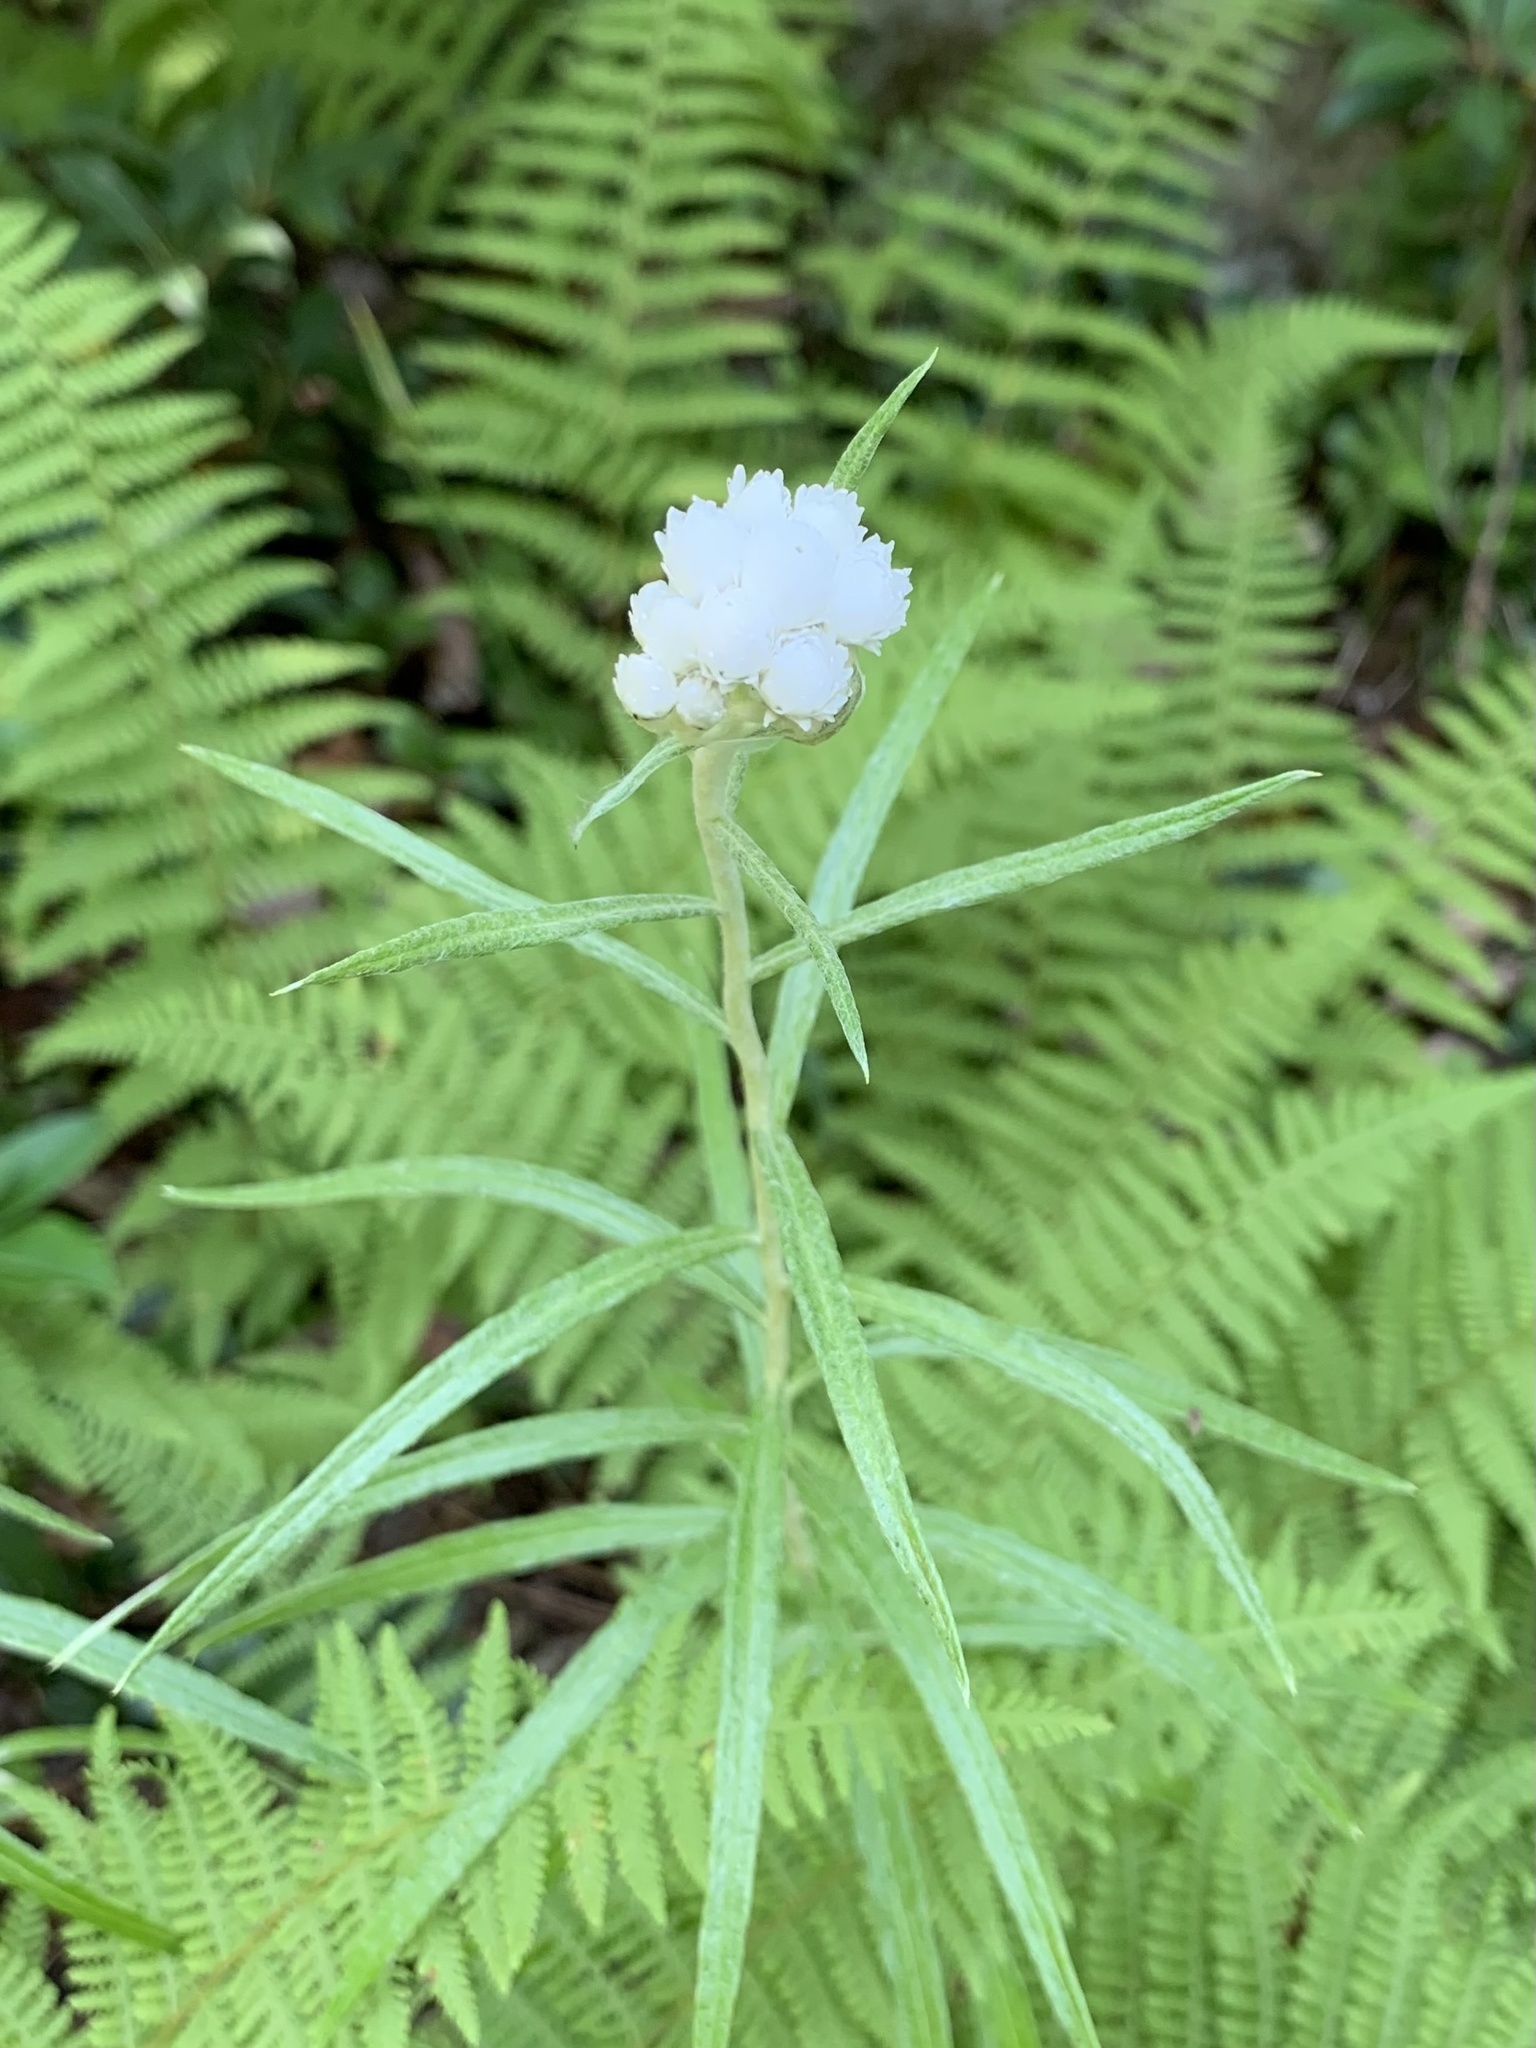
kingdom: Plantae
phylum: Tracheophyta
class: Magnoliopsida
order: Asterales
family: Asteraceae
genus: Anaphalis
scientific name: Anaphalis margaritacea
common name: Pearly everlasting
